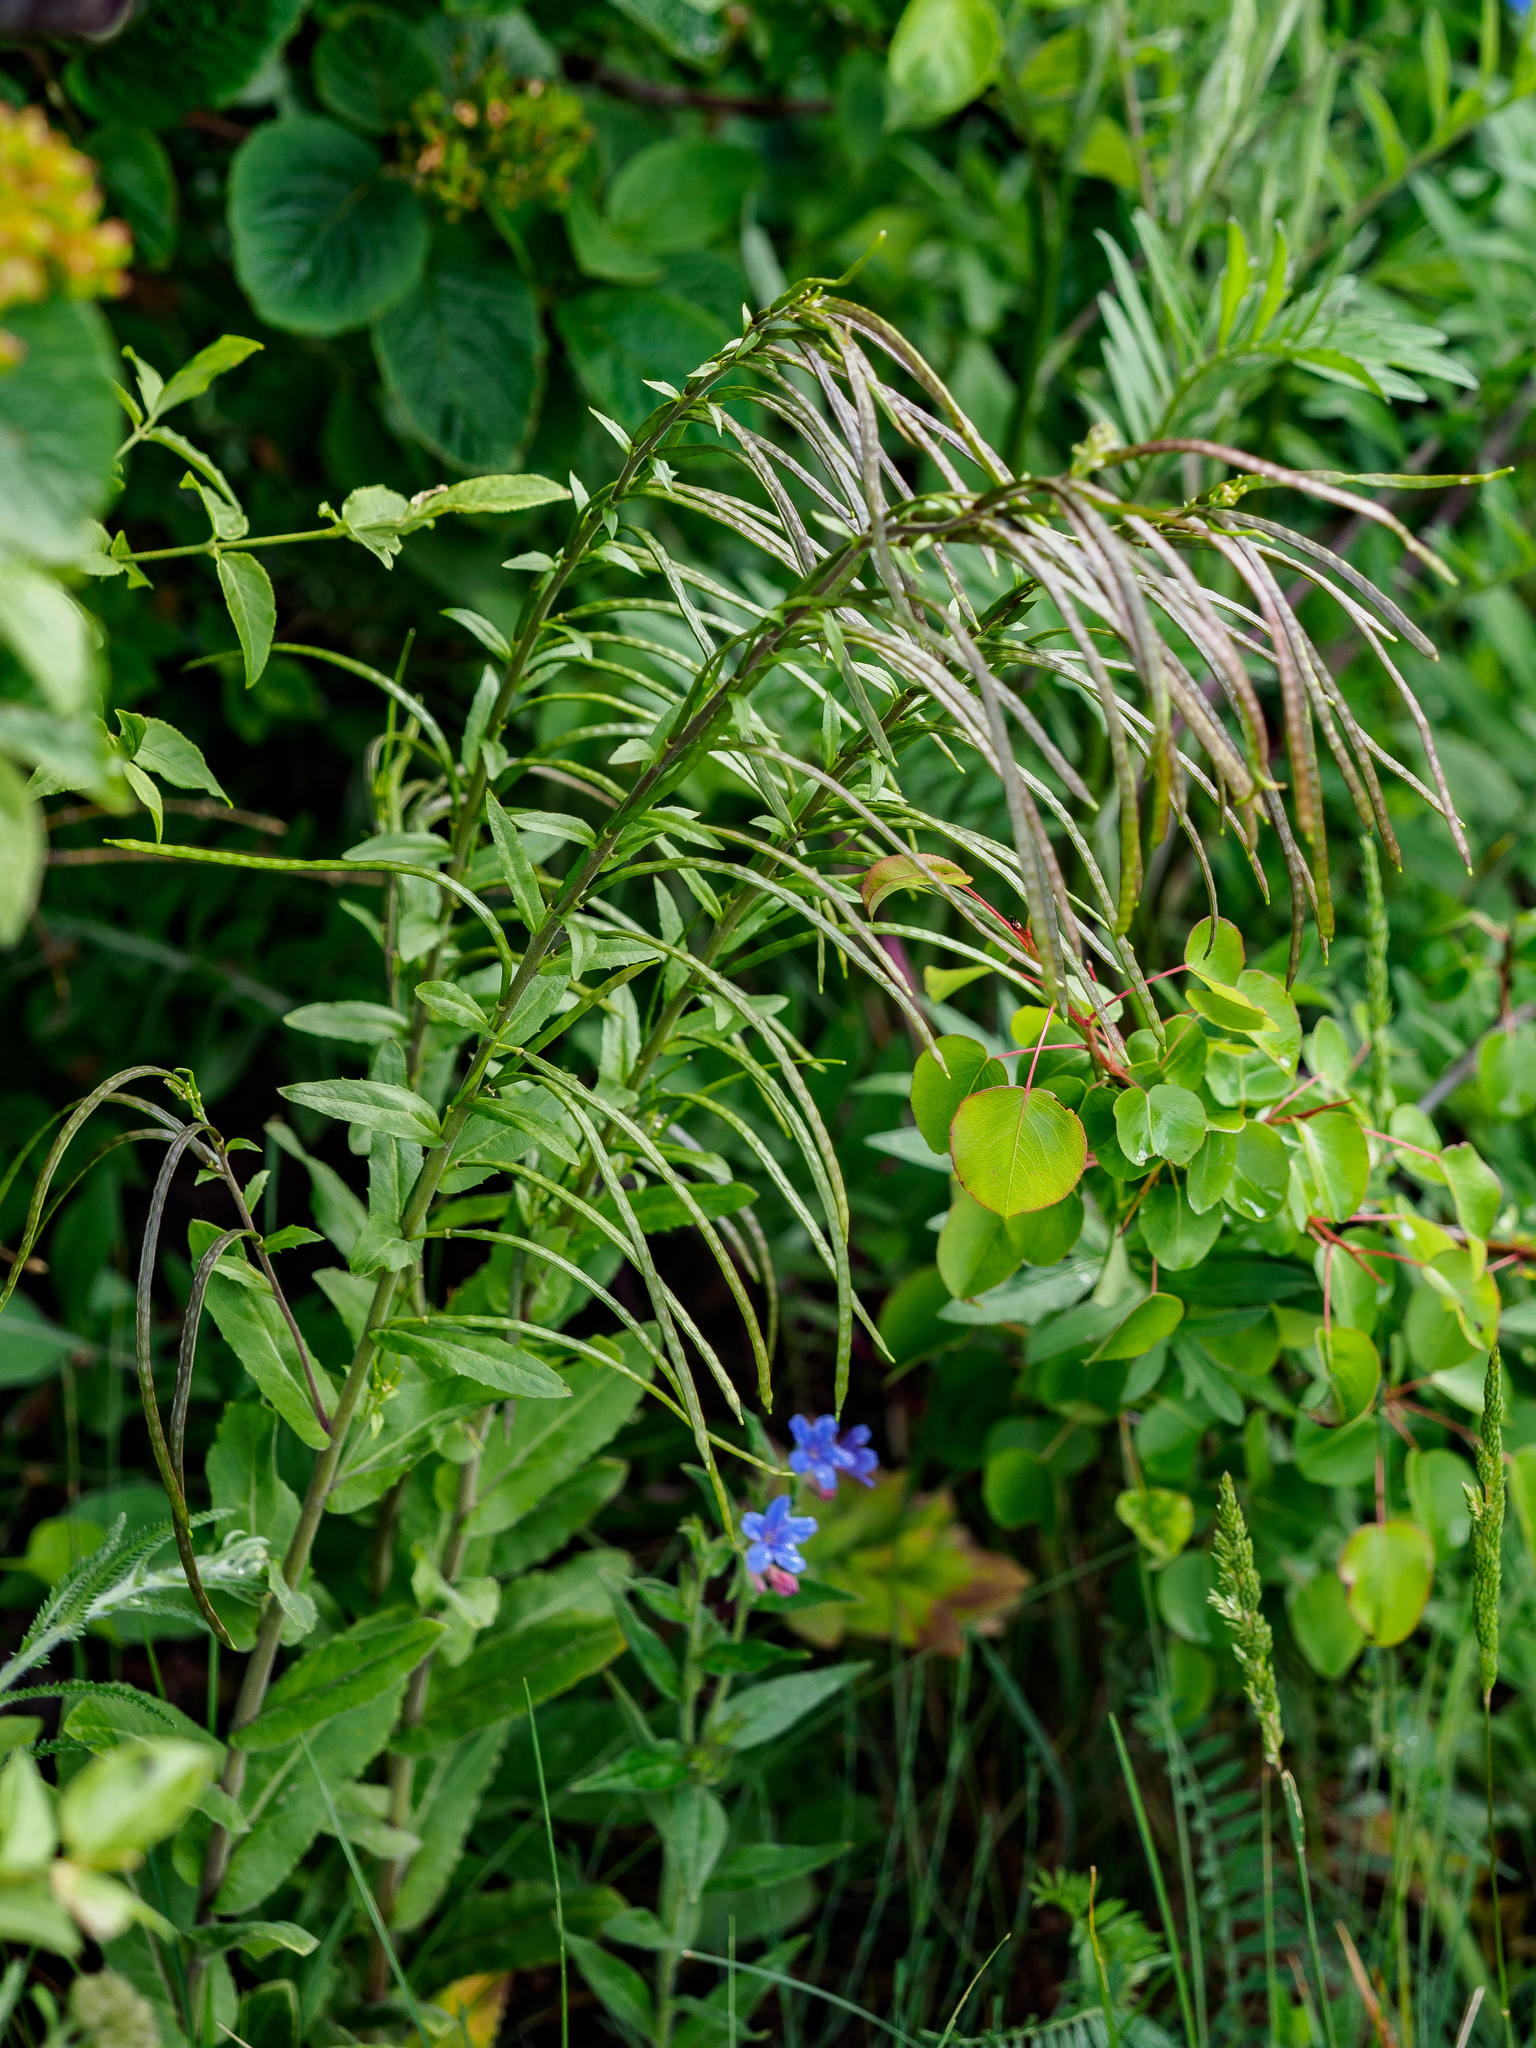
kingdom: Plantae
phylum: Tracheophyta
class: Magnoliopsida
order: Brassicales
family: Brassicaceae
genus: Pseudoturritis
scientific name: Pseudoturritis turrita
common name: Tower cress
